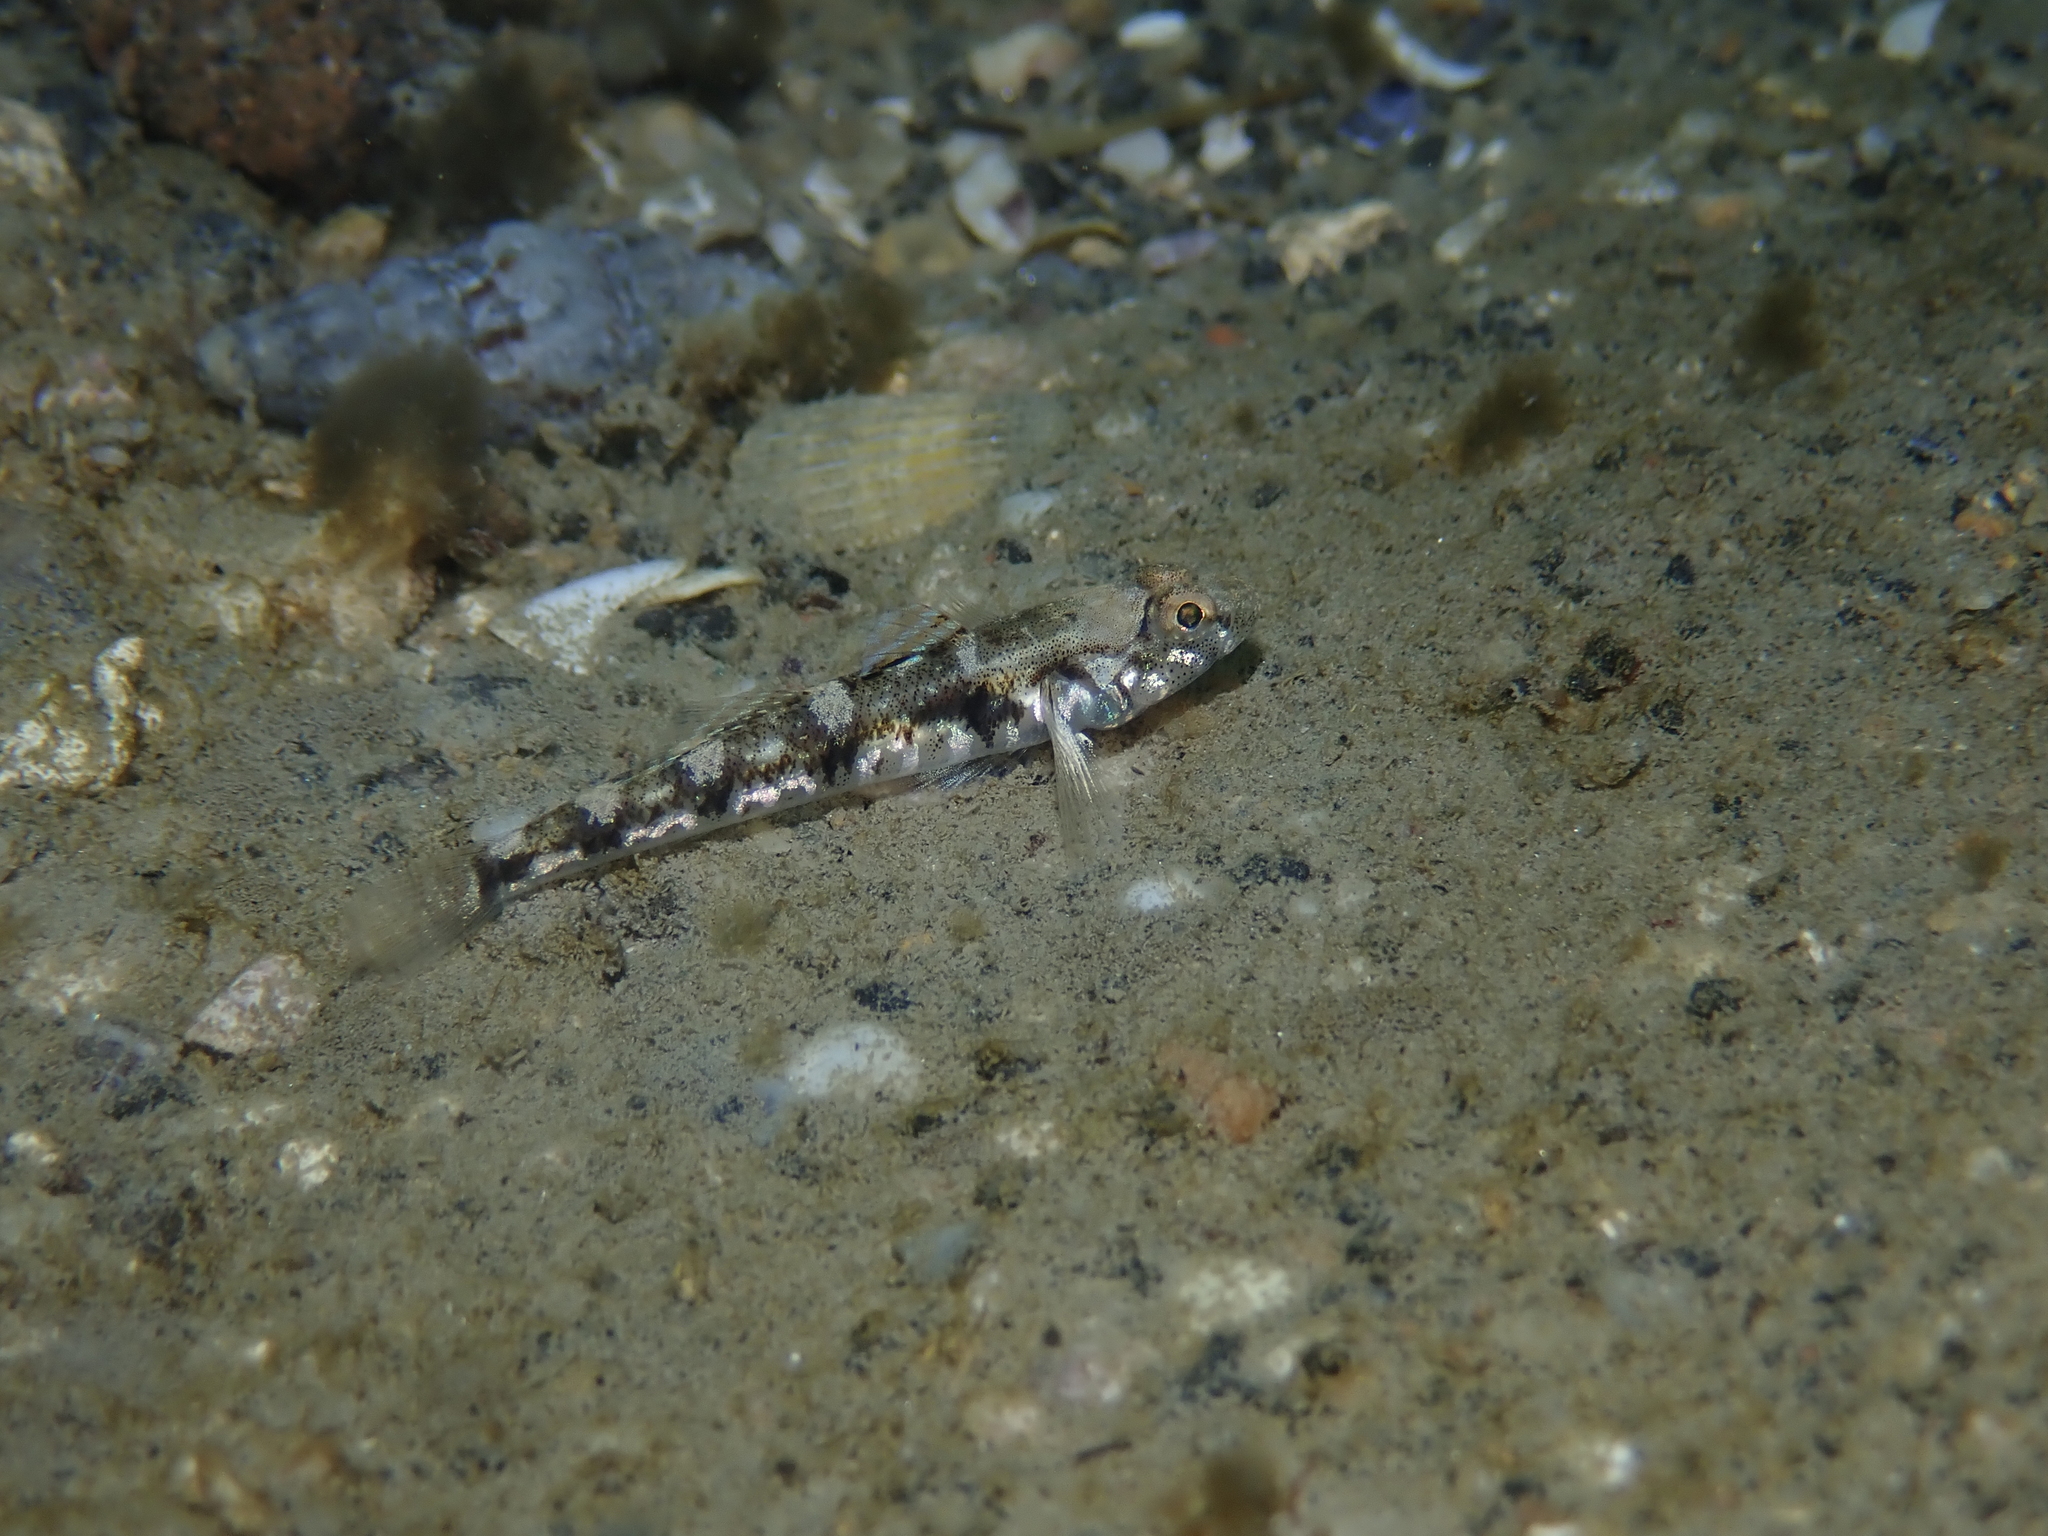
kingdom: Animalia
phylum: Chordata
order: Perciformes
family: Gobiidae
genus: Pomatoschistus
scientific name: Pomatoschistus pictus
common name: Painted goby
